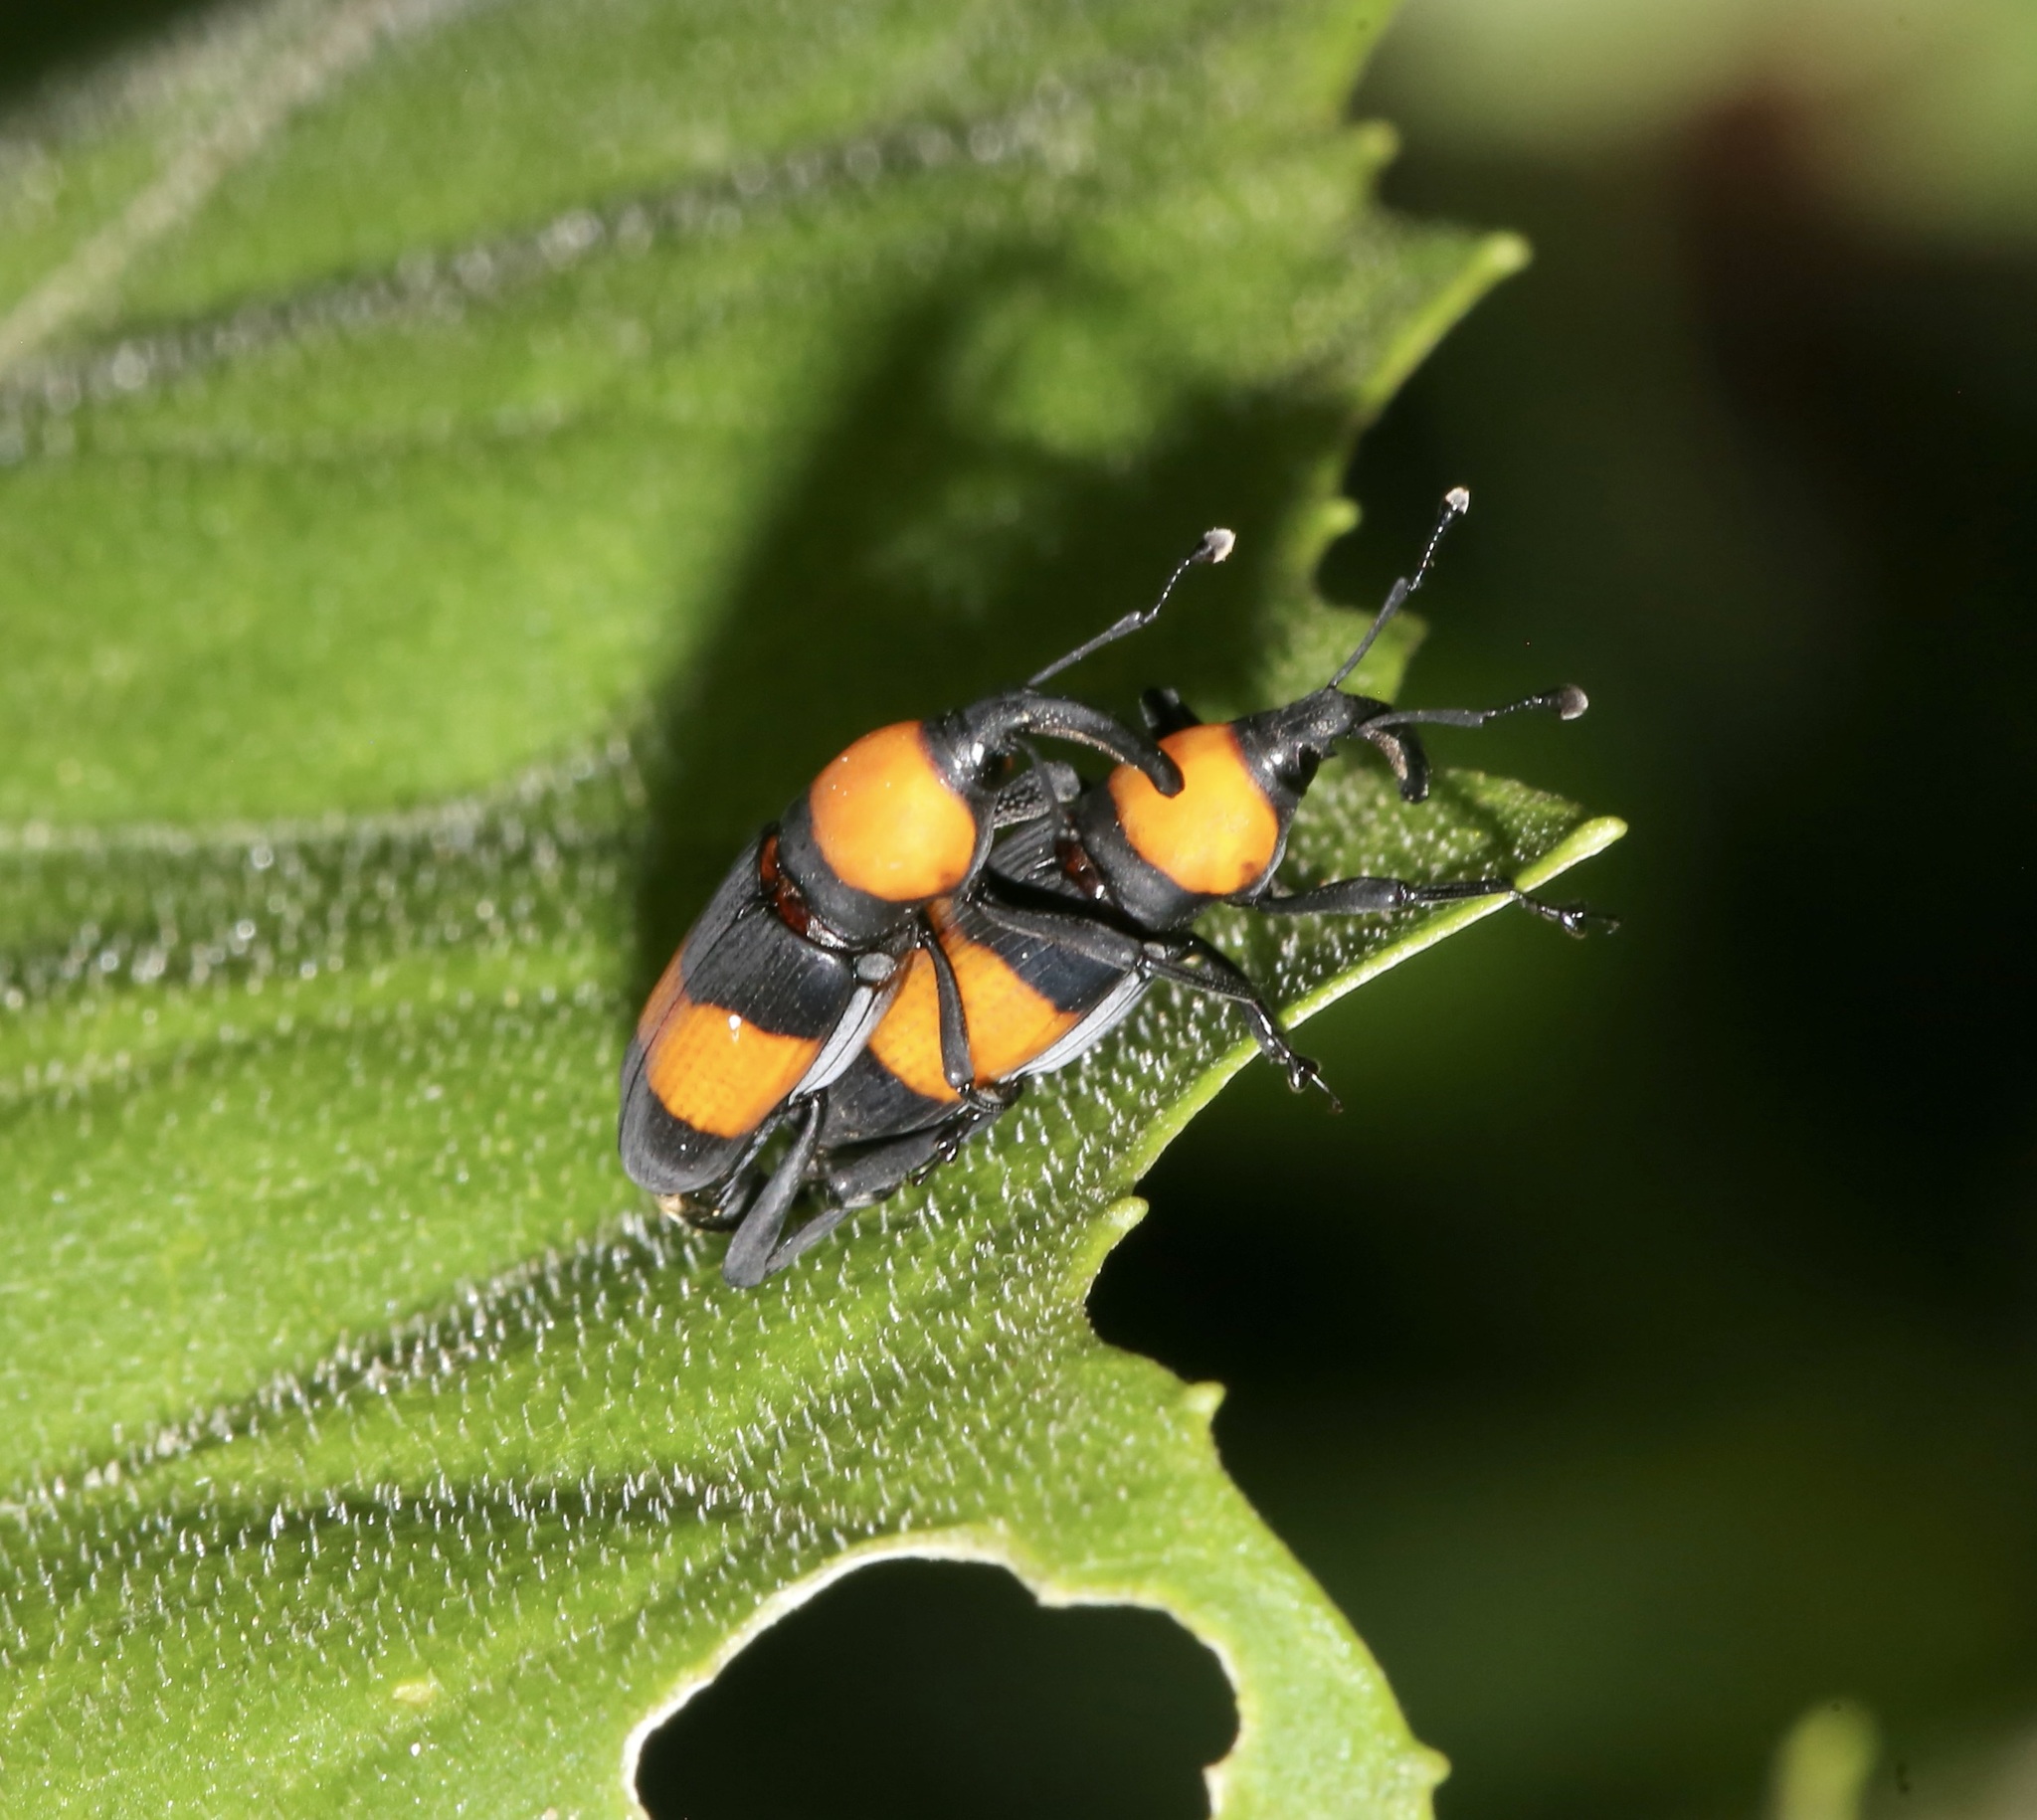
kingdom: Animalia
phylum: Arthropoda
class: Insecta
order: Coleoptera
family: Dryophthoridae
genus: Rhodobaenus
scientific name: Rhodobaenus augustinus
